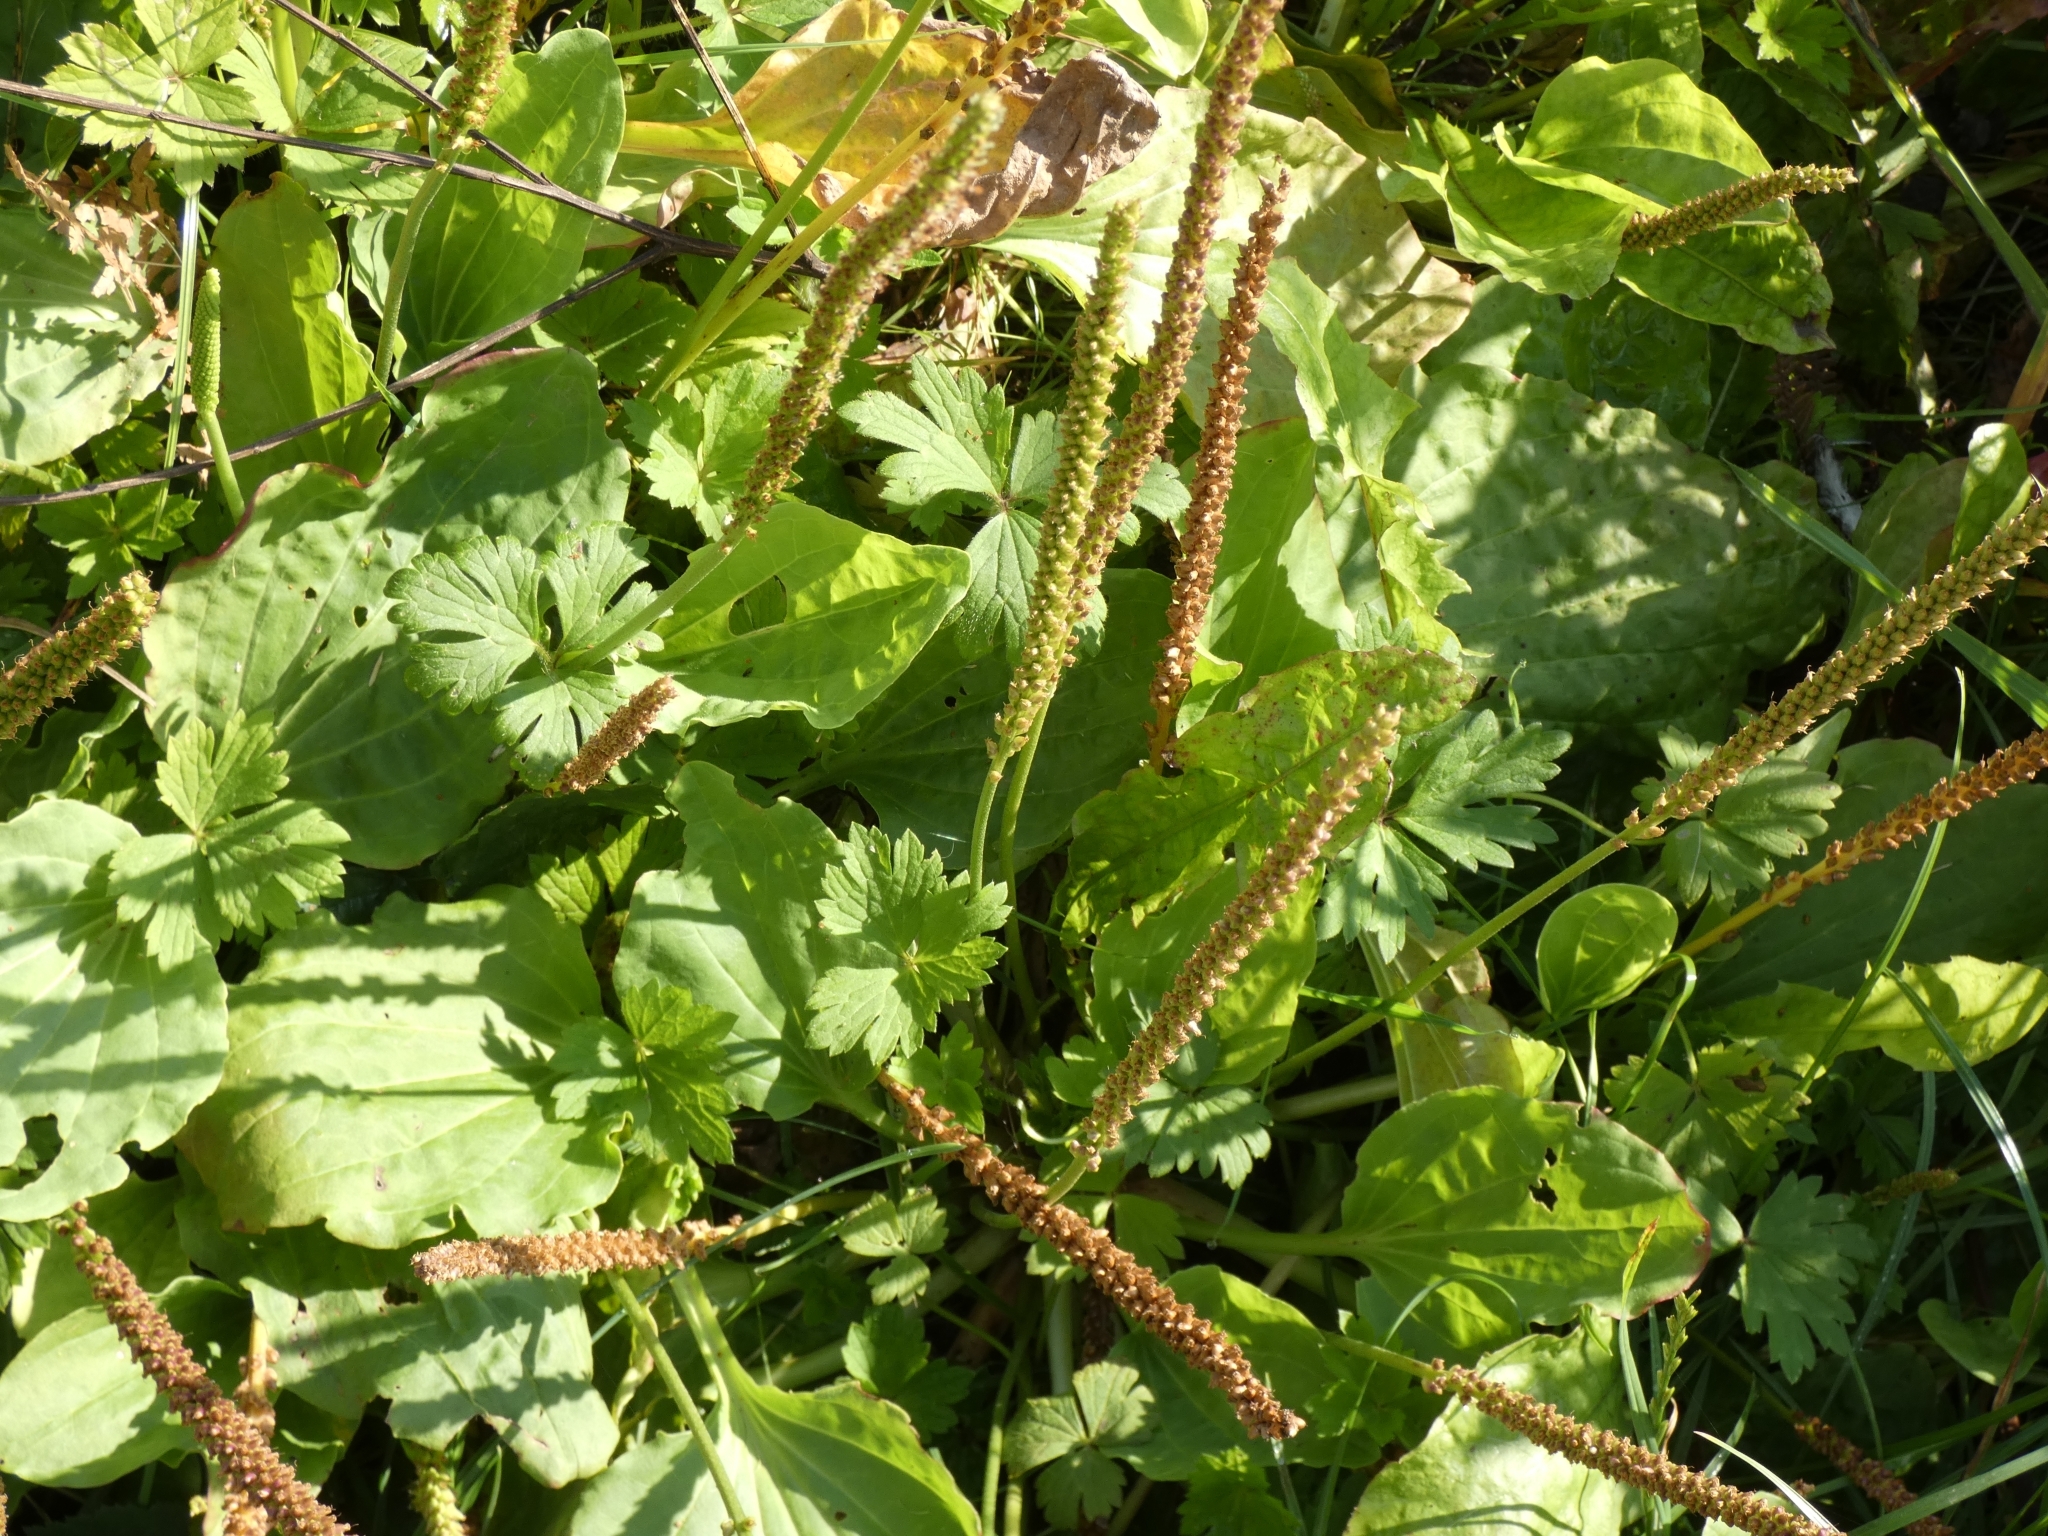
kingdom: Plantae
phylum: Tracheophyta
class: Magnoliopsida
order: Lamiales
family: Plantaginaceae
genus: Plantago
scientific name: Plantago major
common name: Common plantain
